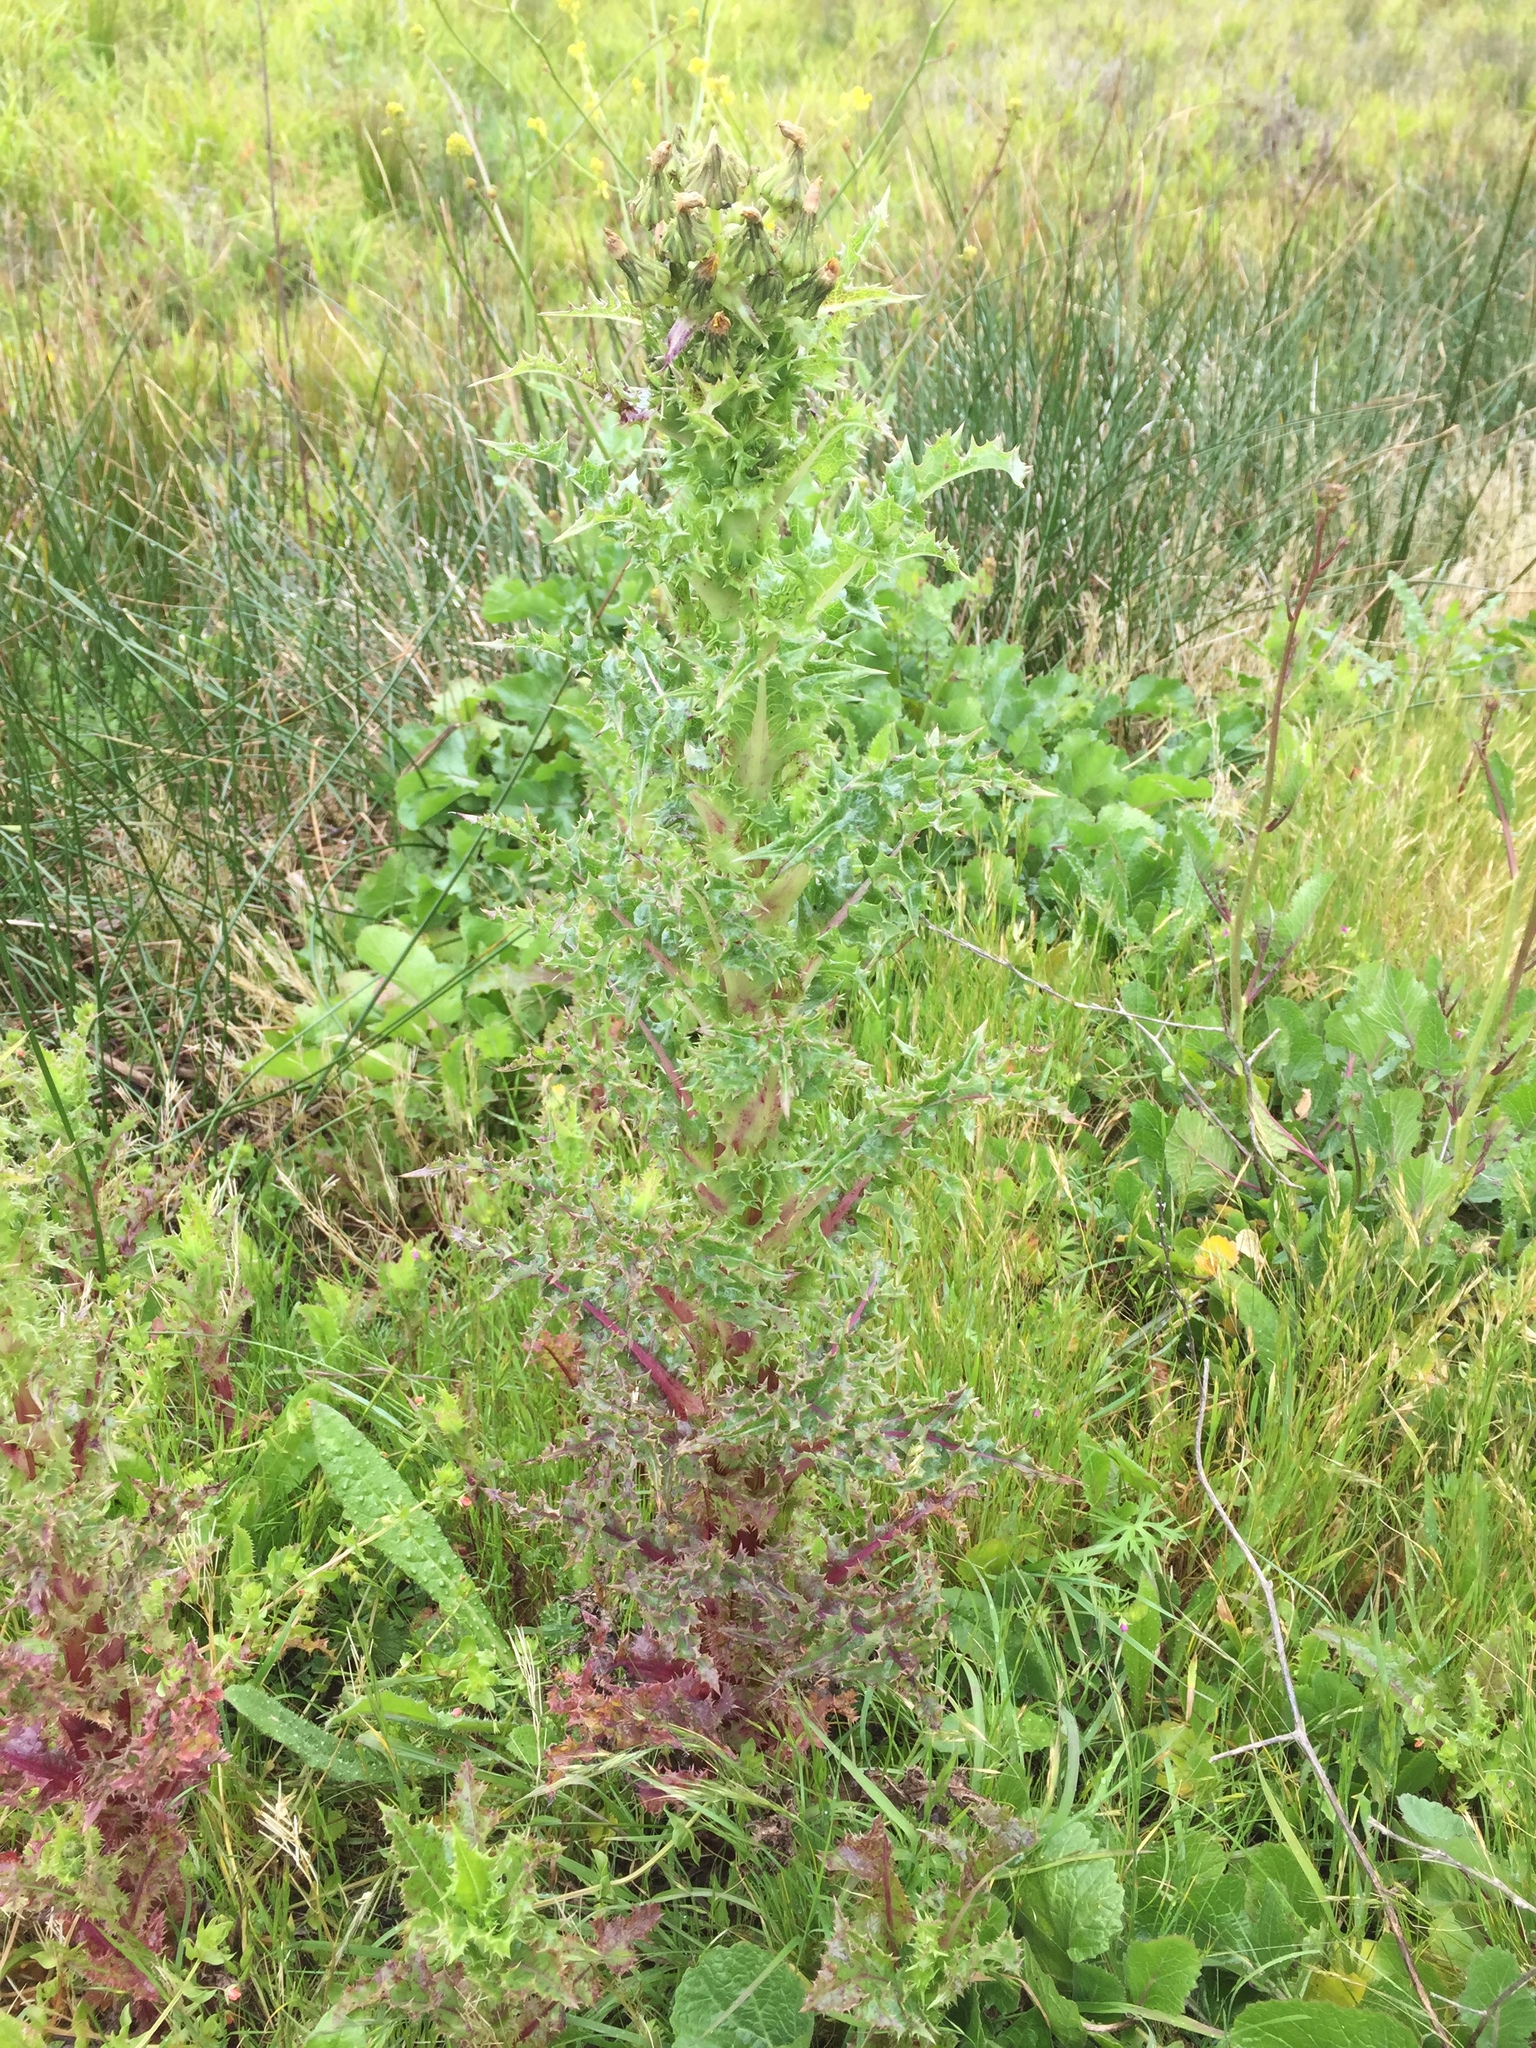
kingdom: Plantae
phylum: Tracheophyta
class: Magnoliopsida
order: Asterales
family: Asteraceae
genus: Sonchus
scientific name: Sonchus asper
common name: Prickly sow-thistle
